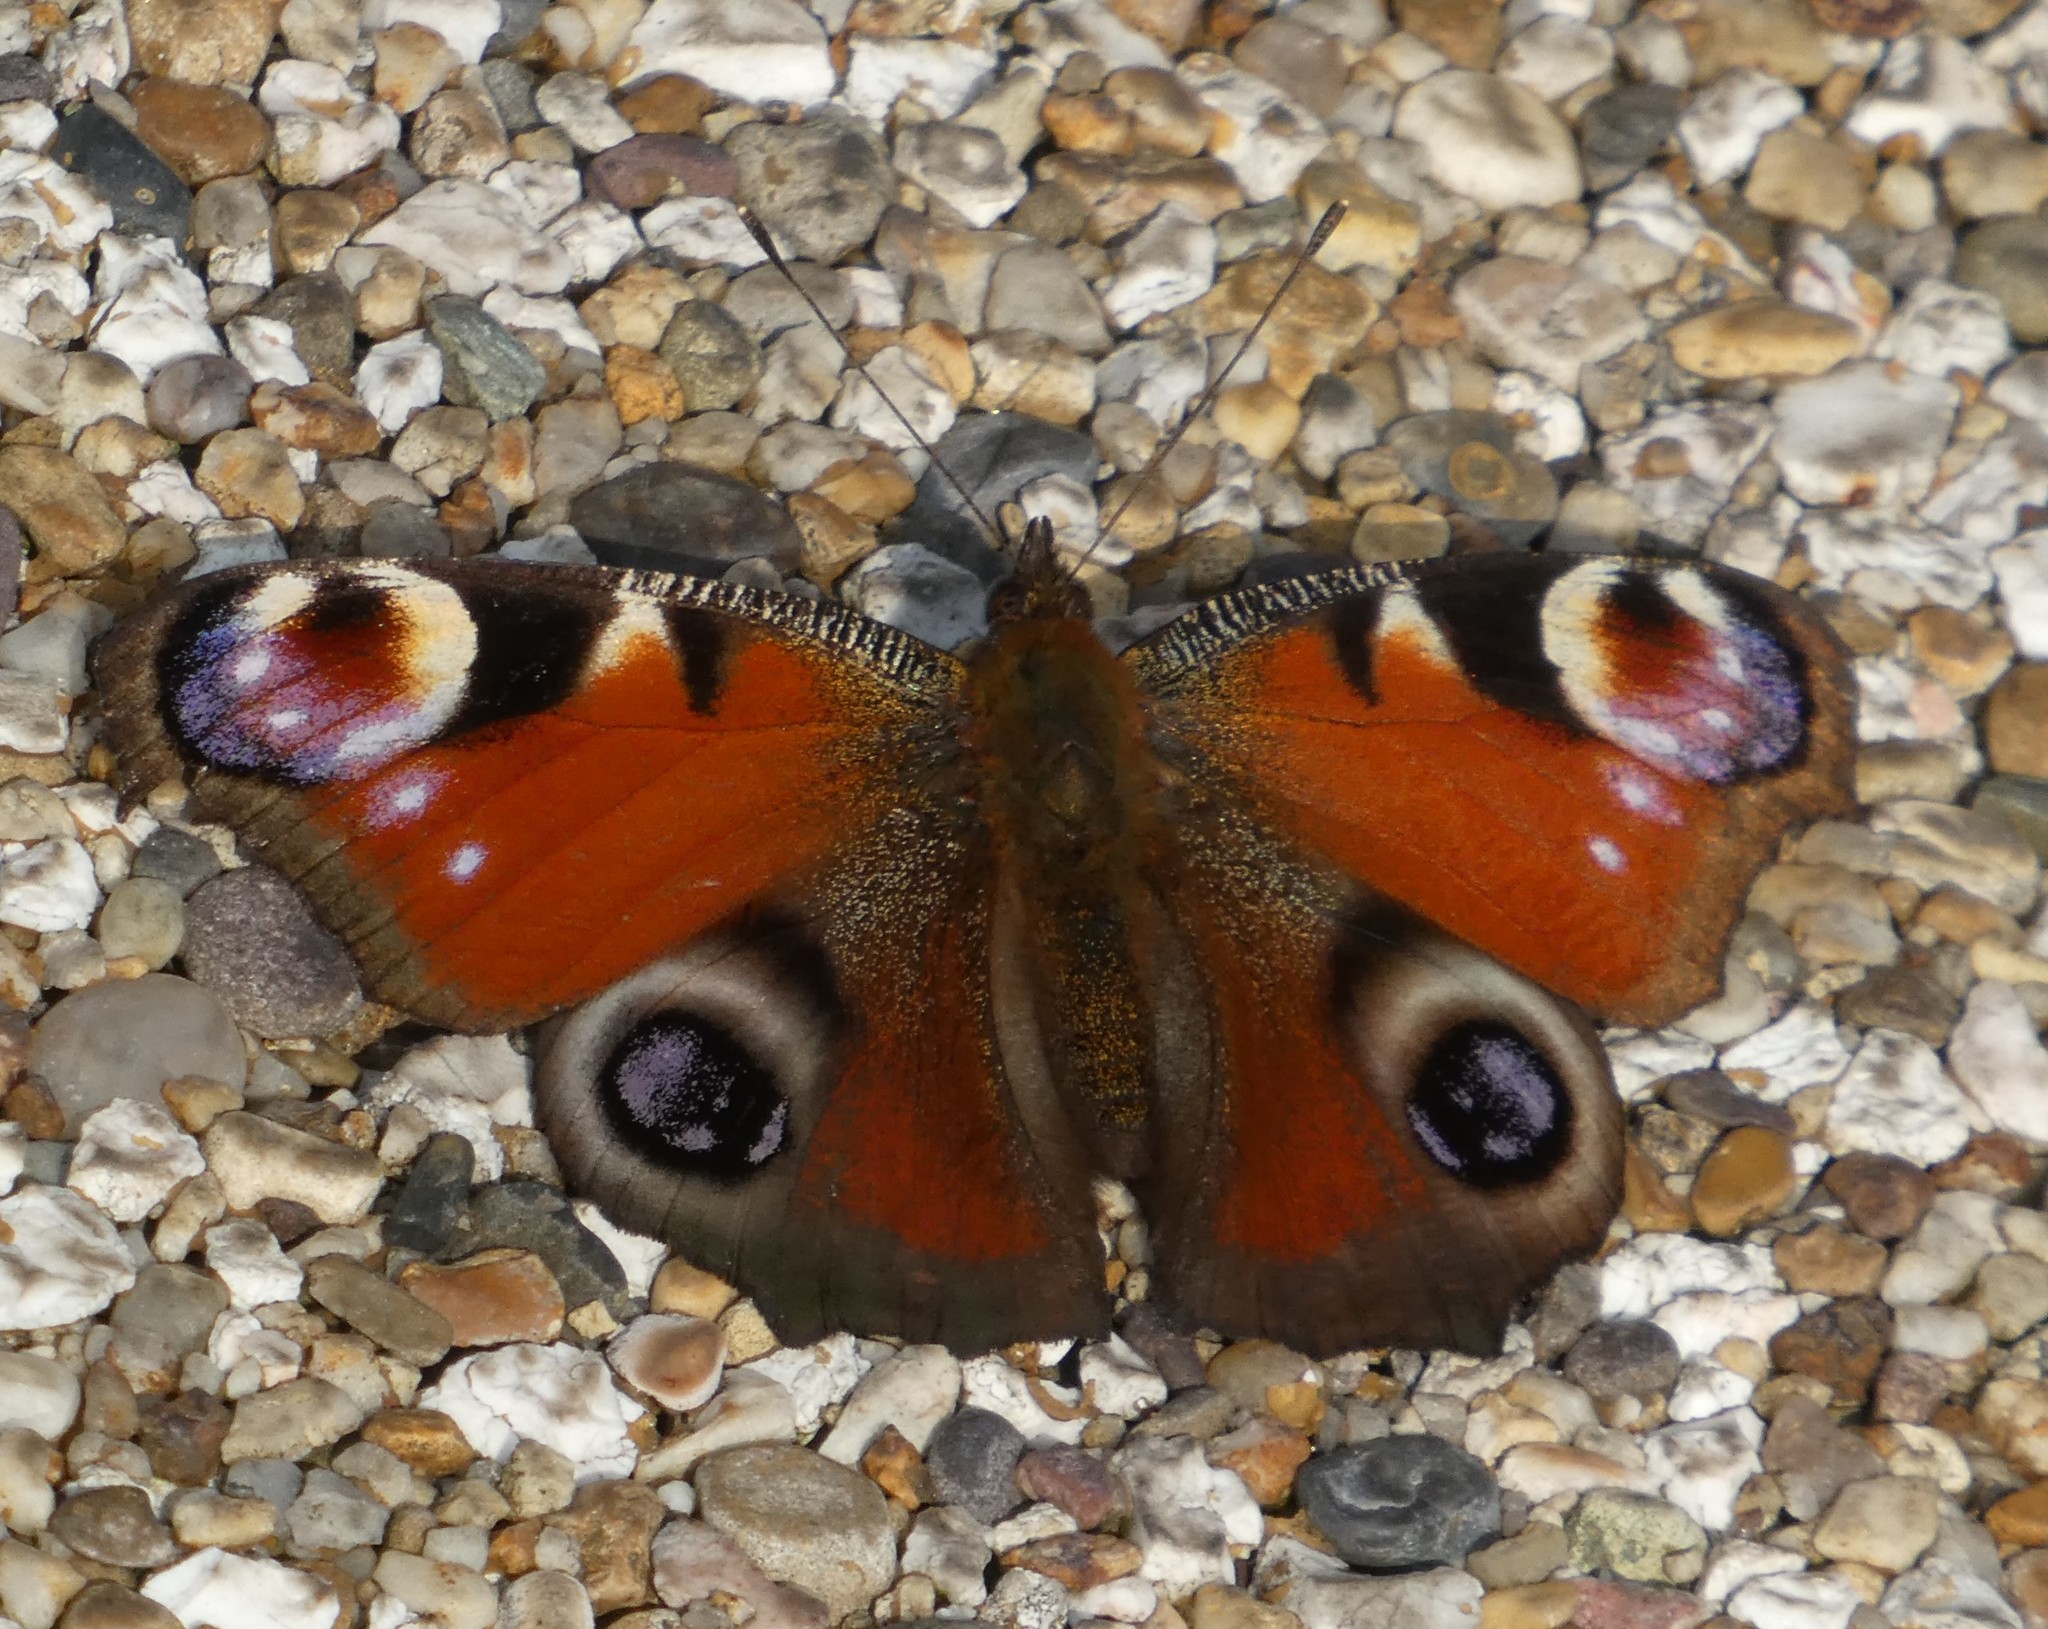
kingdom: Animalia
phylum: Arthropoda
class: Insecta
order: Lepidoptera
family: Nymphalidae
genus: Aglais
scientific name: Aglais io
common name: Peacock
